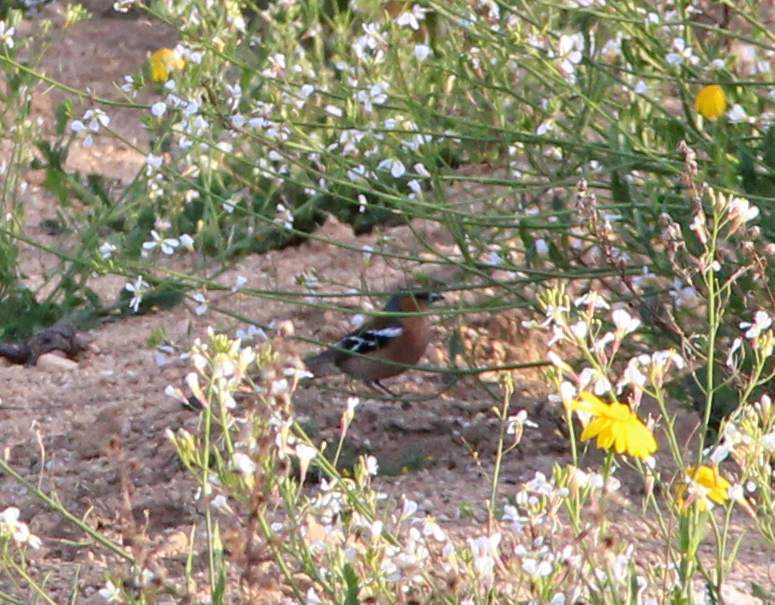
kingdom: Animalia
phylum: Chordata
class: Aves
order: Passeriformes
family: Fringillidae
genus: Fringilla
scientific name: Fringilla coelebs
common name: Common chaffinch
